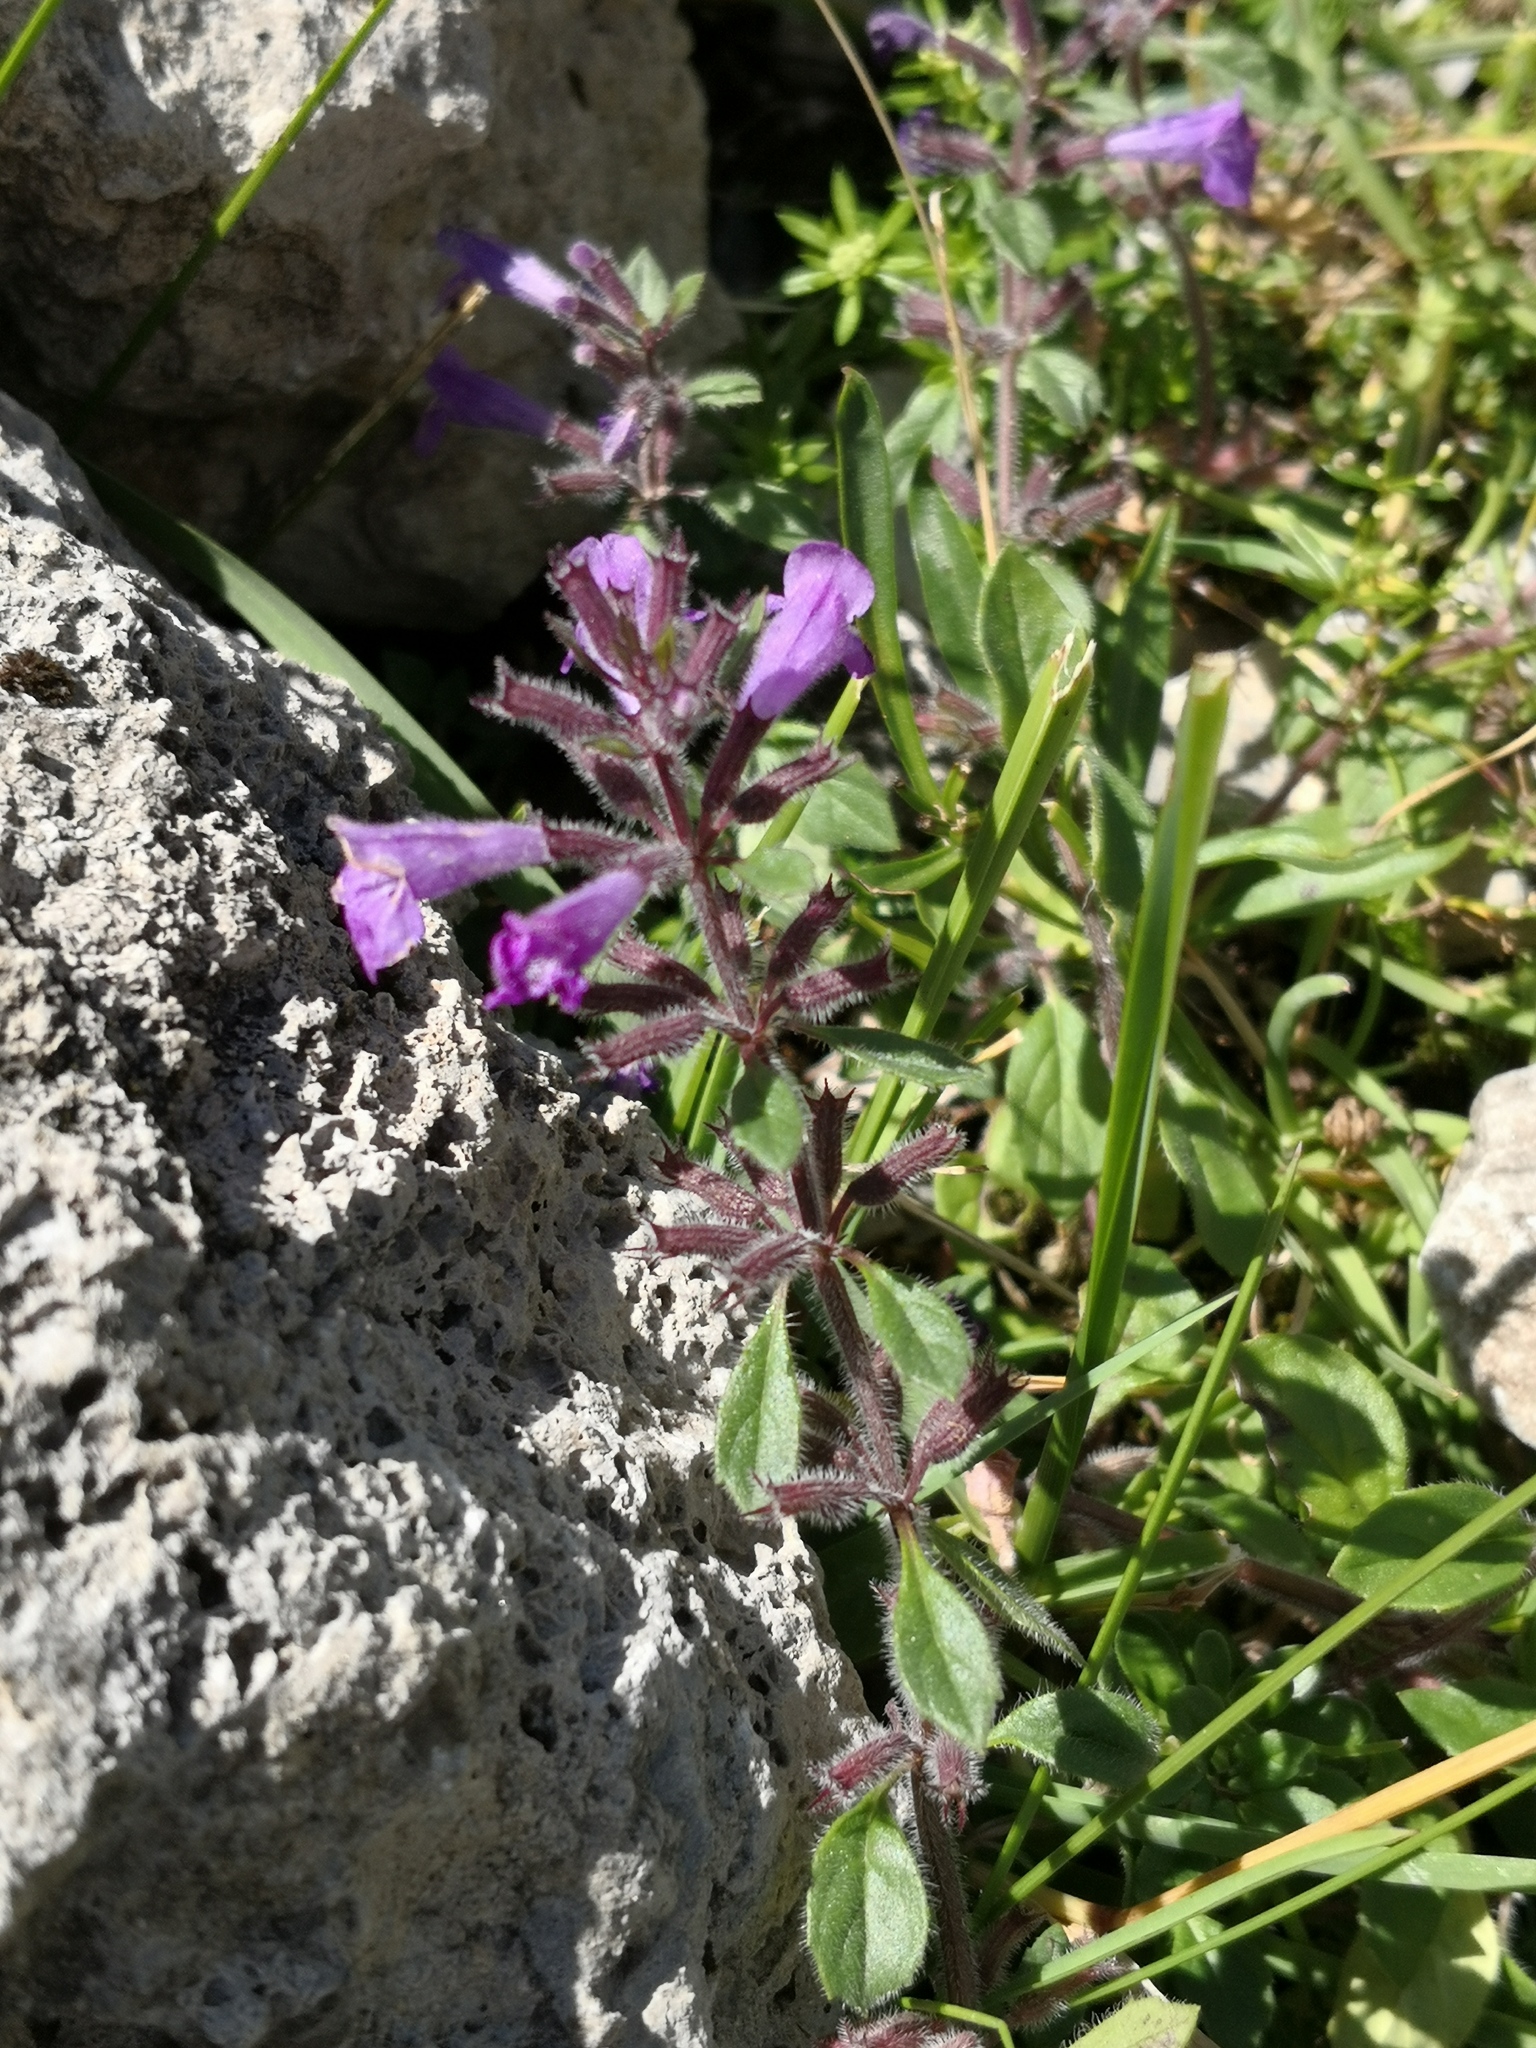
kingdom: Plantae
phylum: Tracheophyta
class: Magnoliopsida
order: Lamiales
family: Lamiaceae
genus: Clinopodium
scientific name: Clinopodium alpinum
